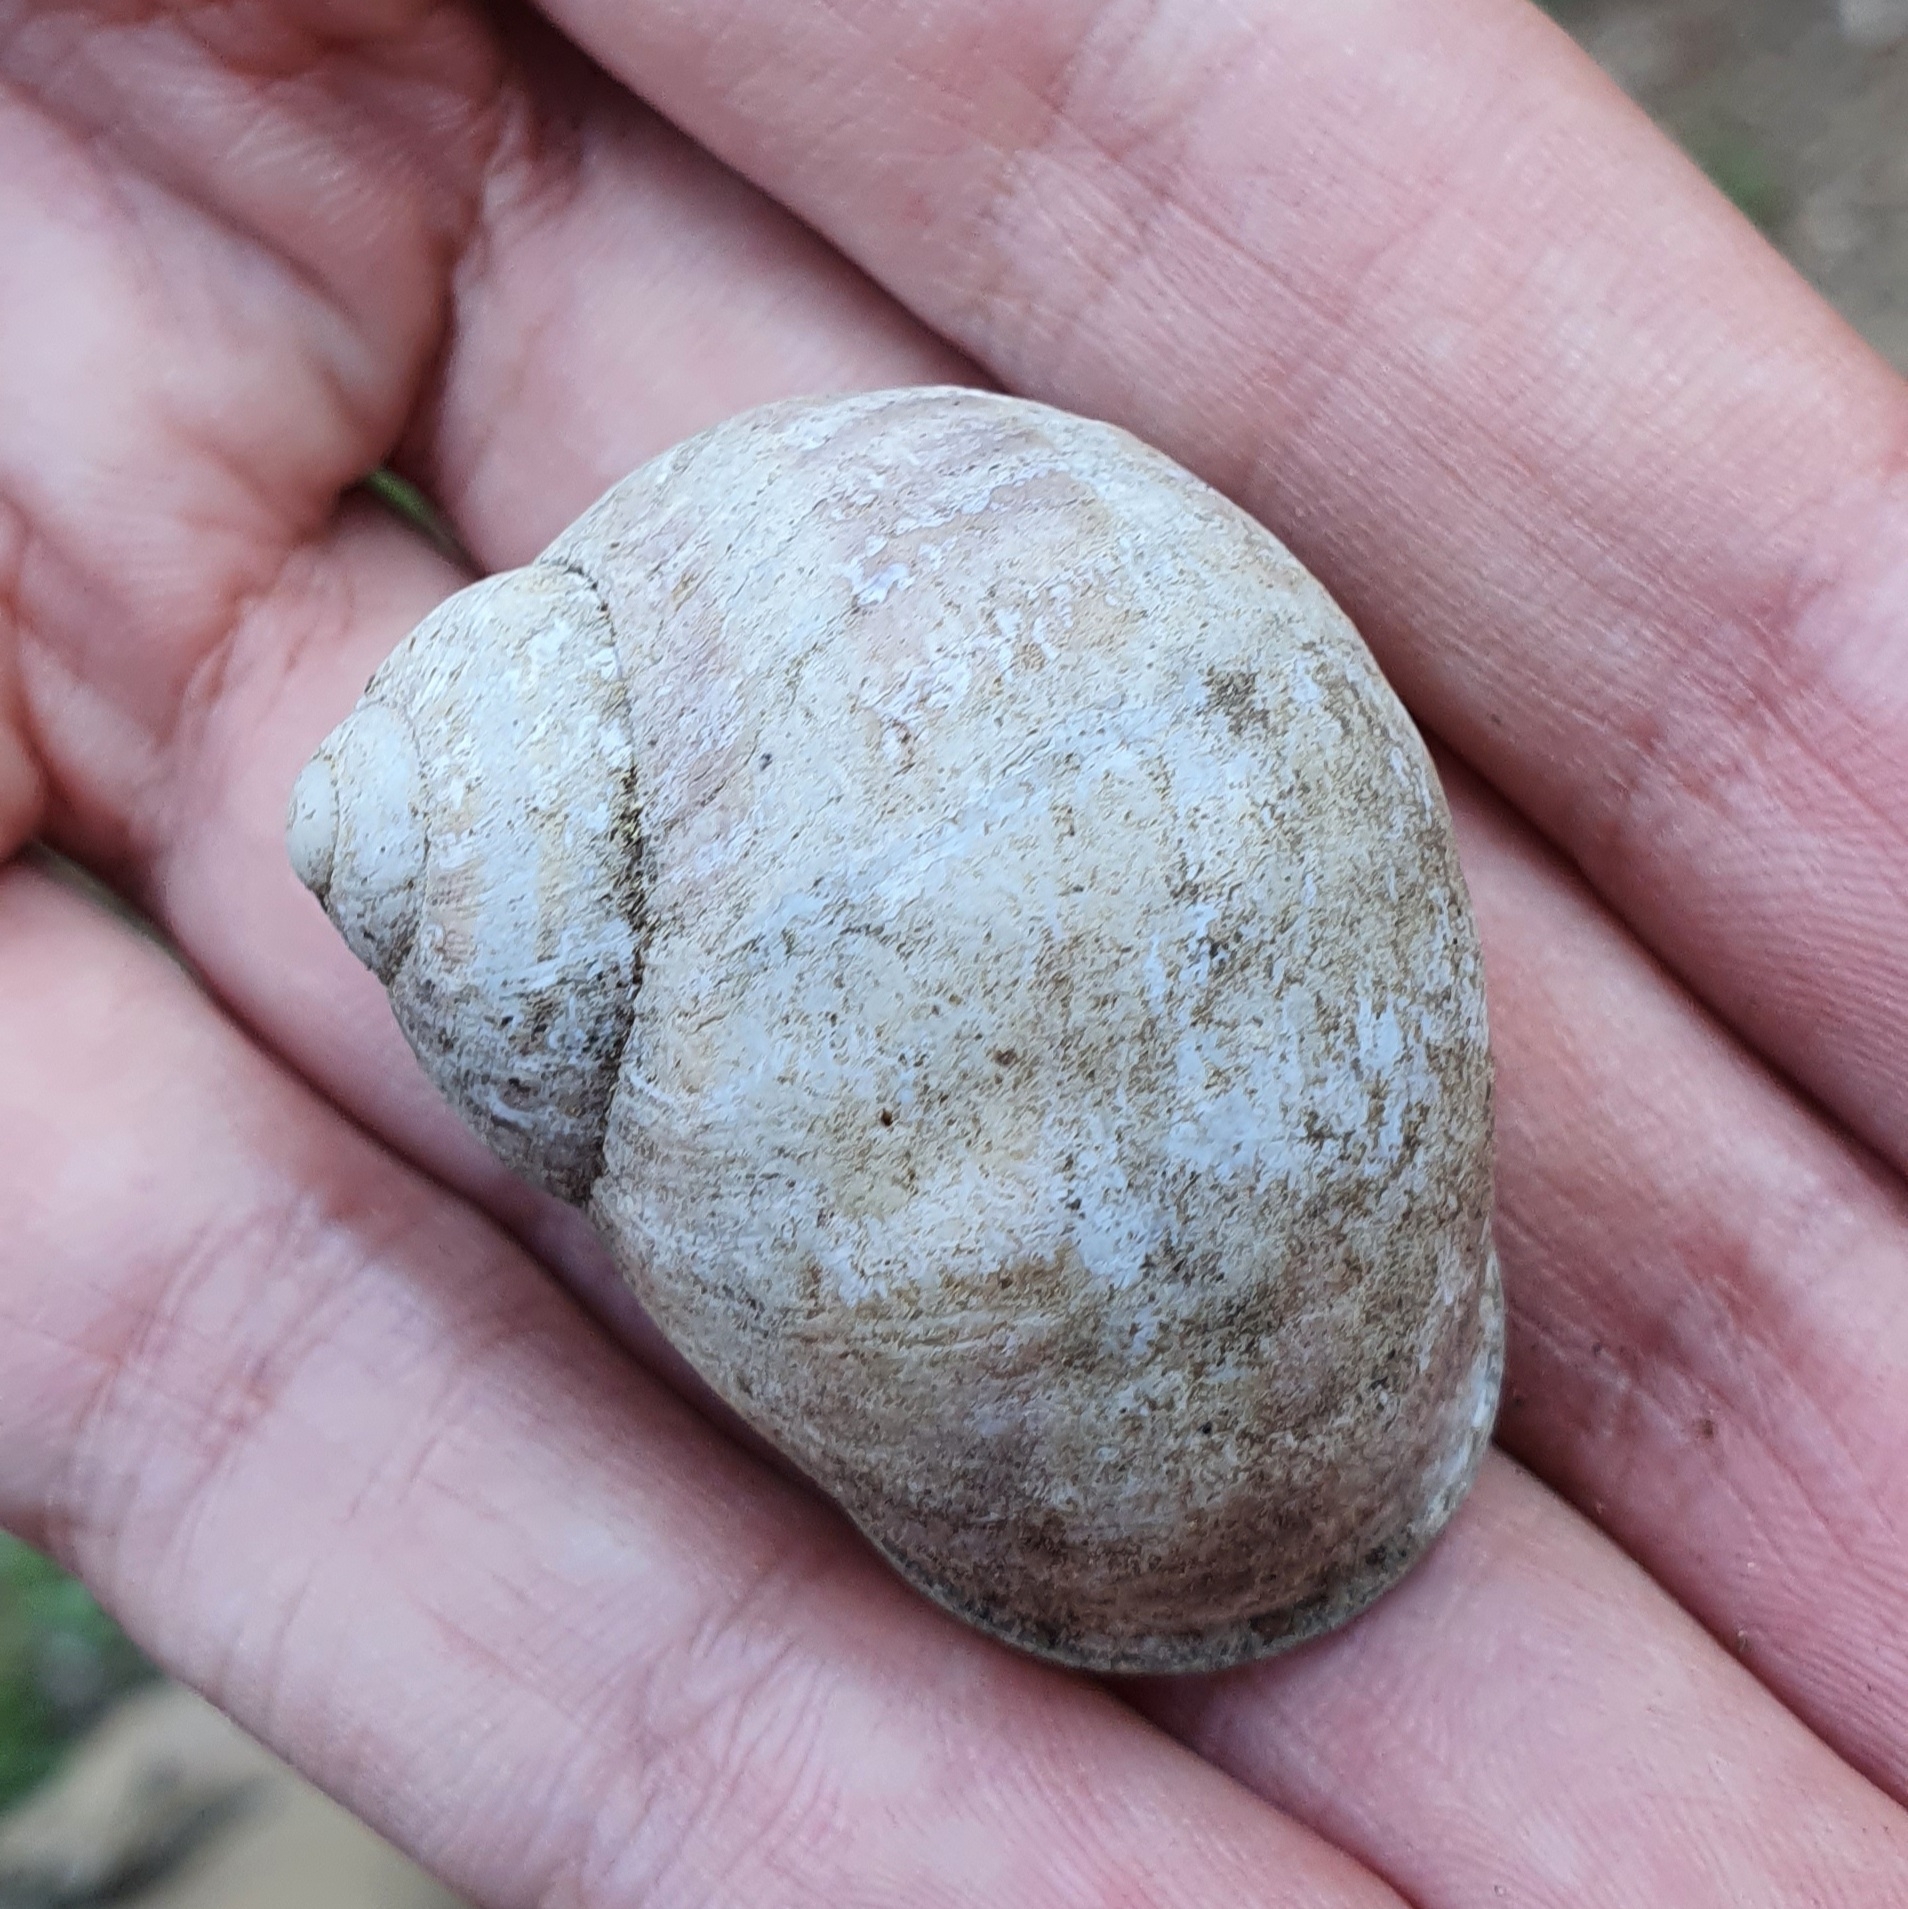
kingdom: Animalia
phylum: Mollusca
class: Gastropoda
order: Stylommatophora
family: Helicidae
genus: Cornu
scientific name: Cornu aspersum
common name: Brown garden snail
